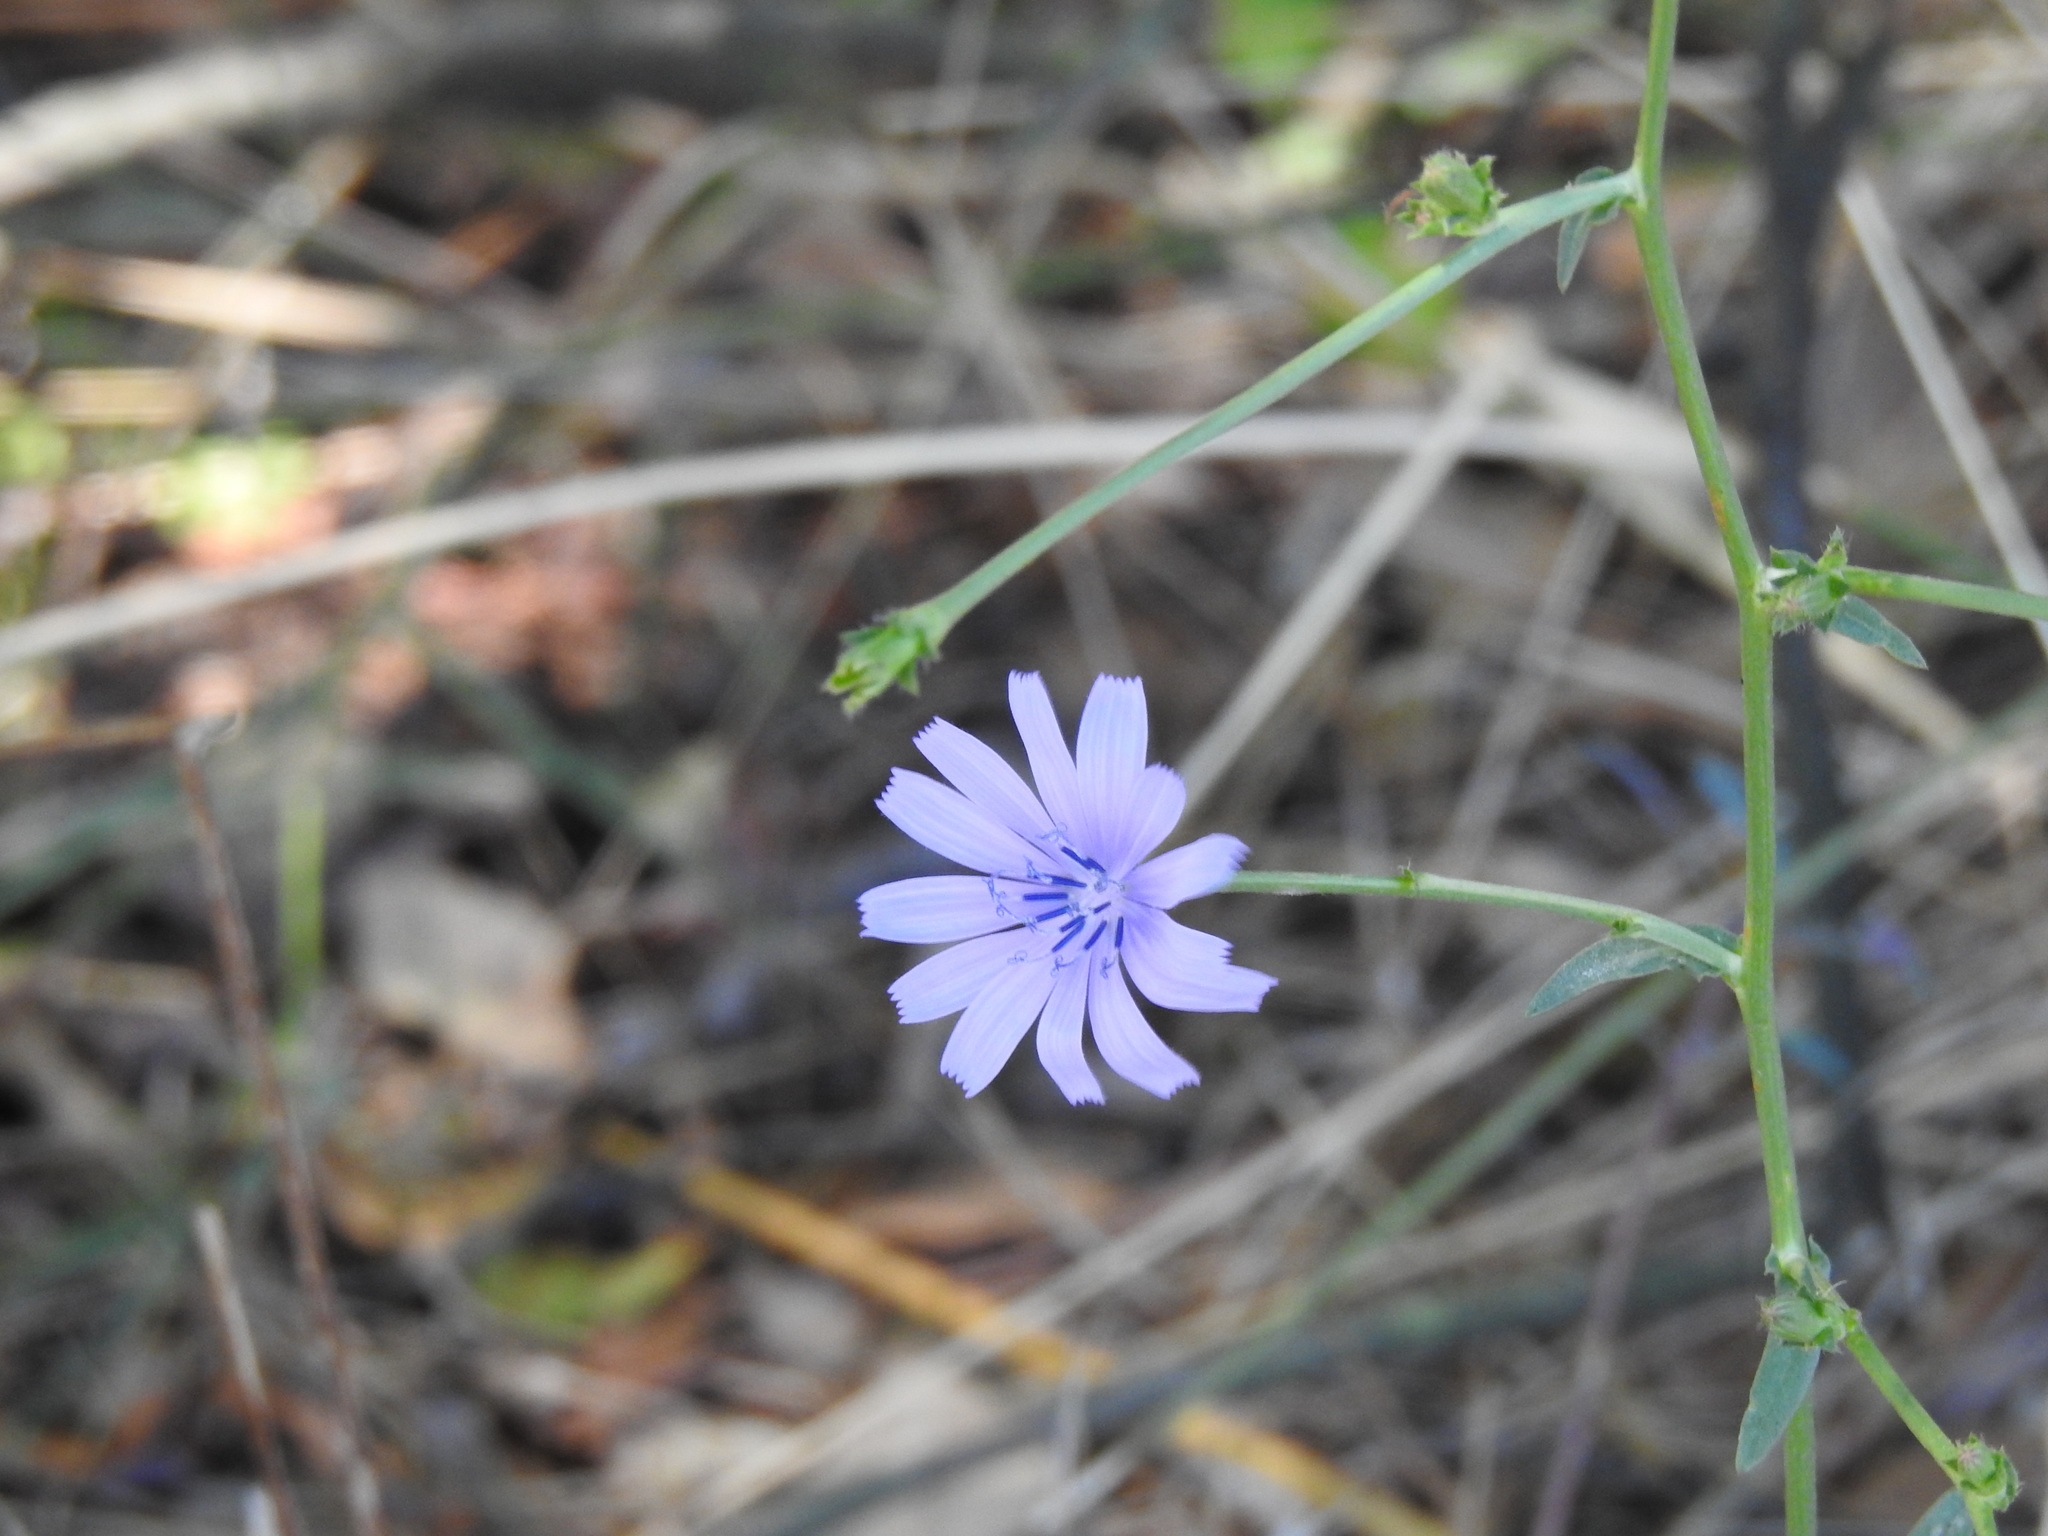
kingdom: Plantae
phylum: Tracheophyta
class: Magnoliopsida
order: Asterales
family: Asteraceae
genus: Cichorium
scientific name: Cichorium intybus
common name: Chicory
